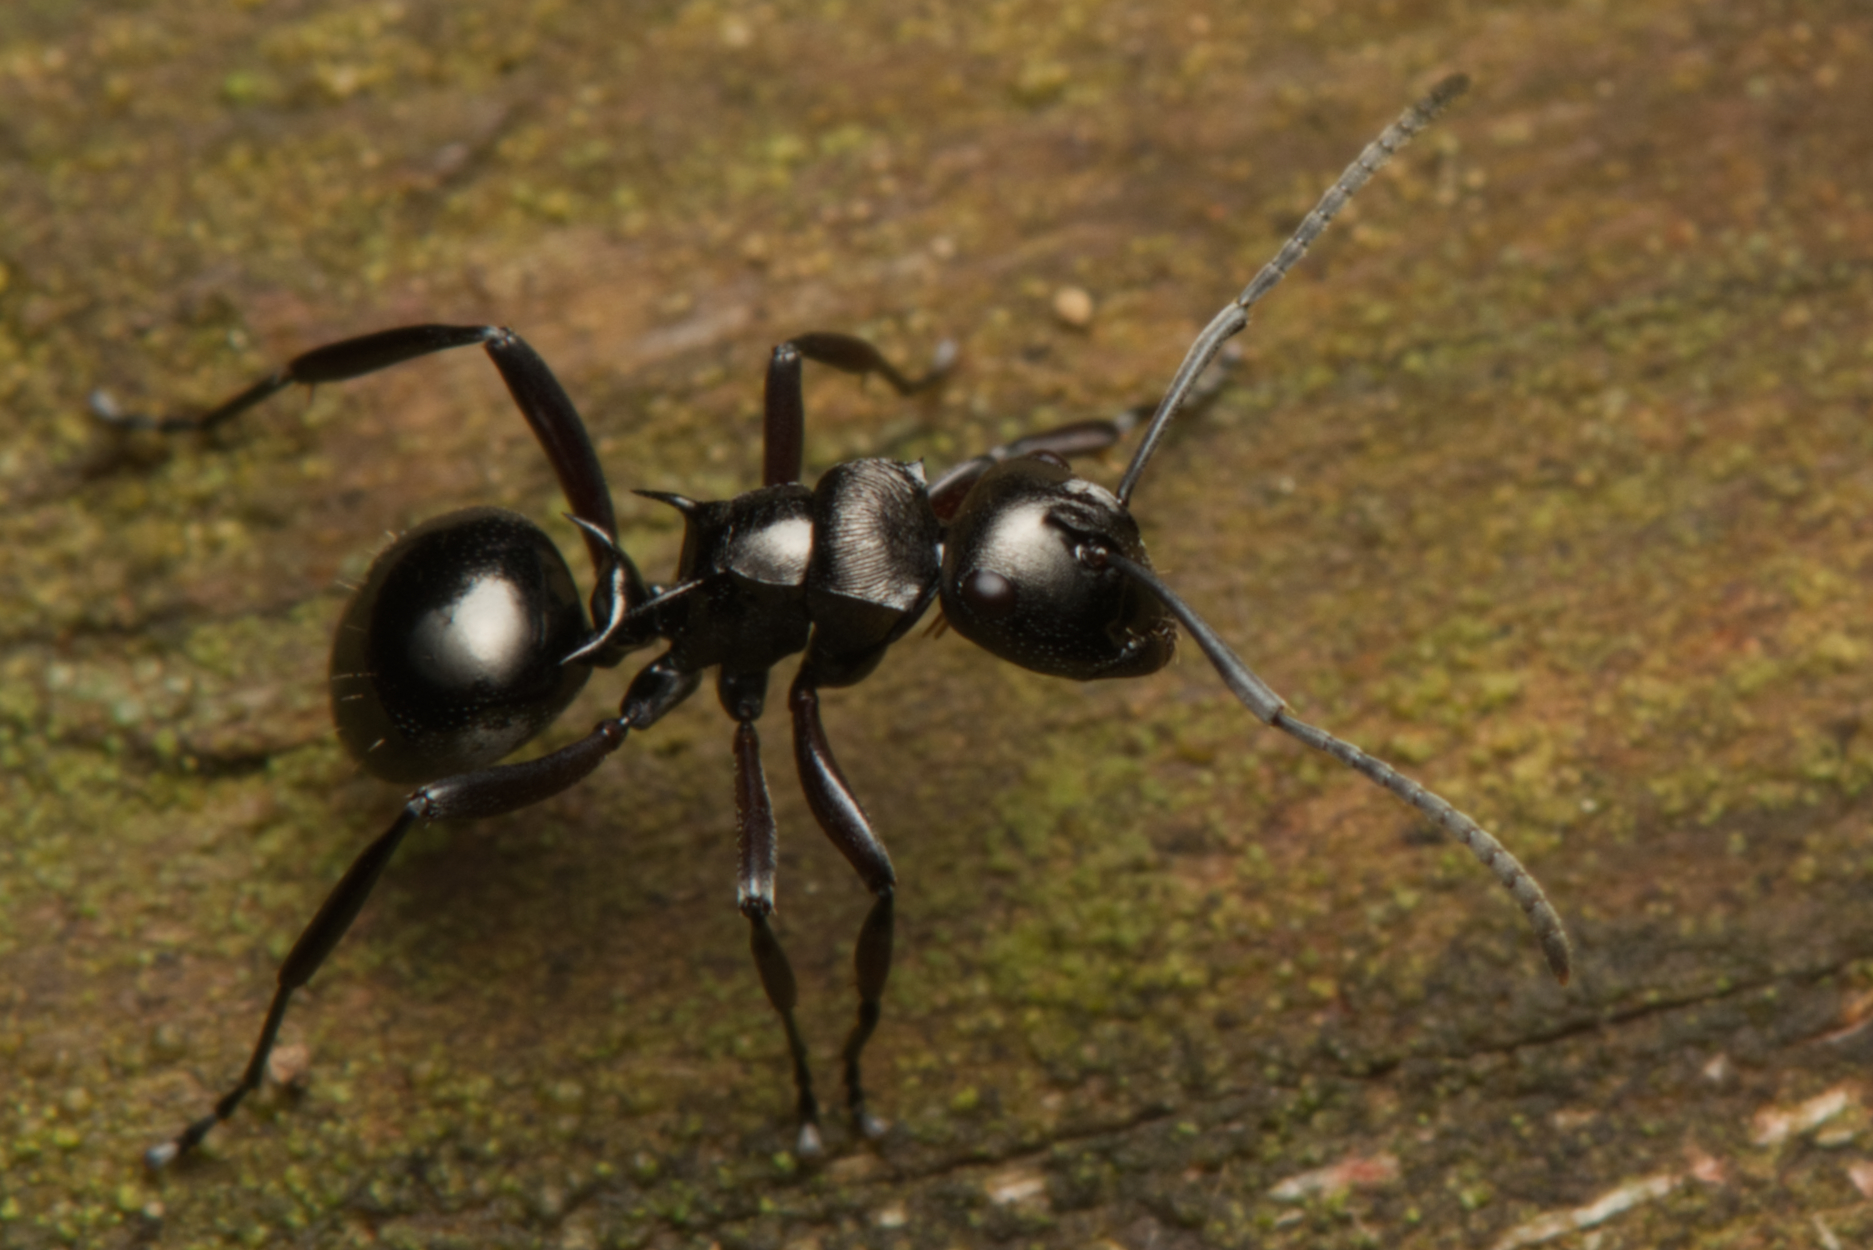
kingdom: Animalia
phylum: Arthropoda
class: Insecta
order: Hymenoptera
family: Formicidae
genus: Polyrhachis
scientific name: Polyrhachis clio
